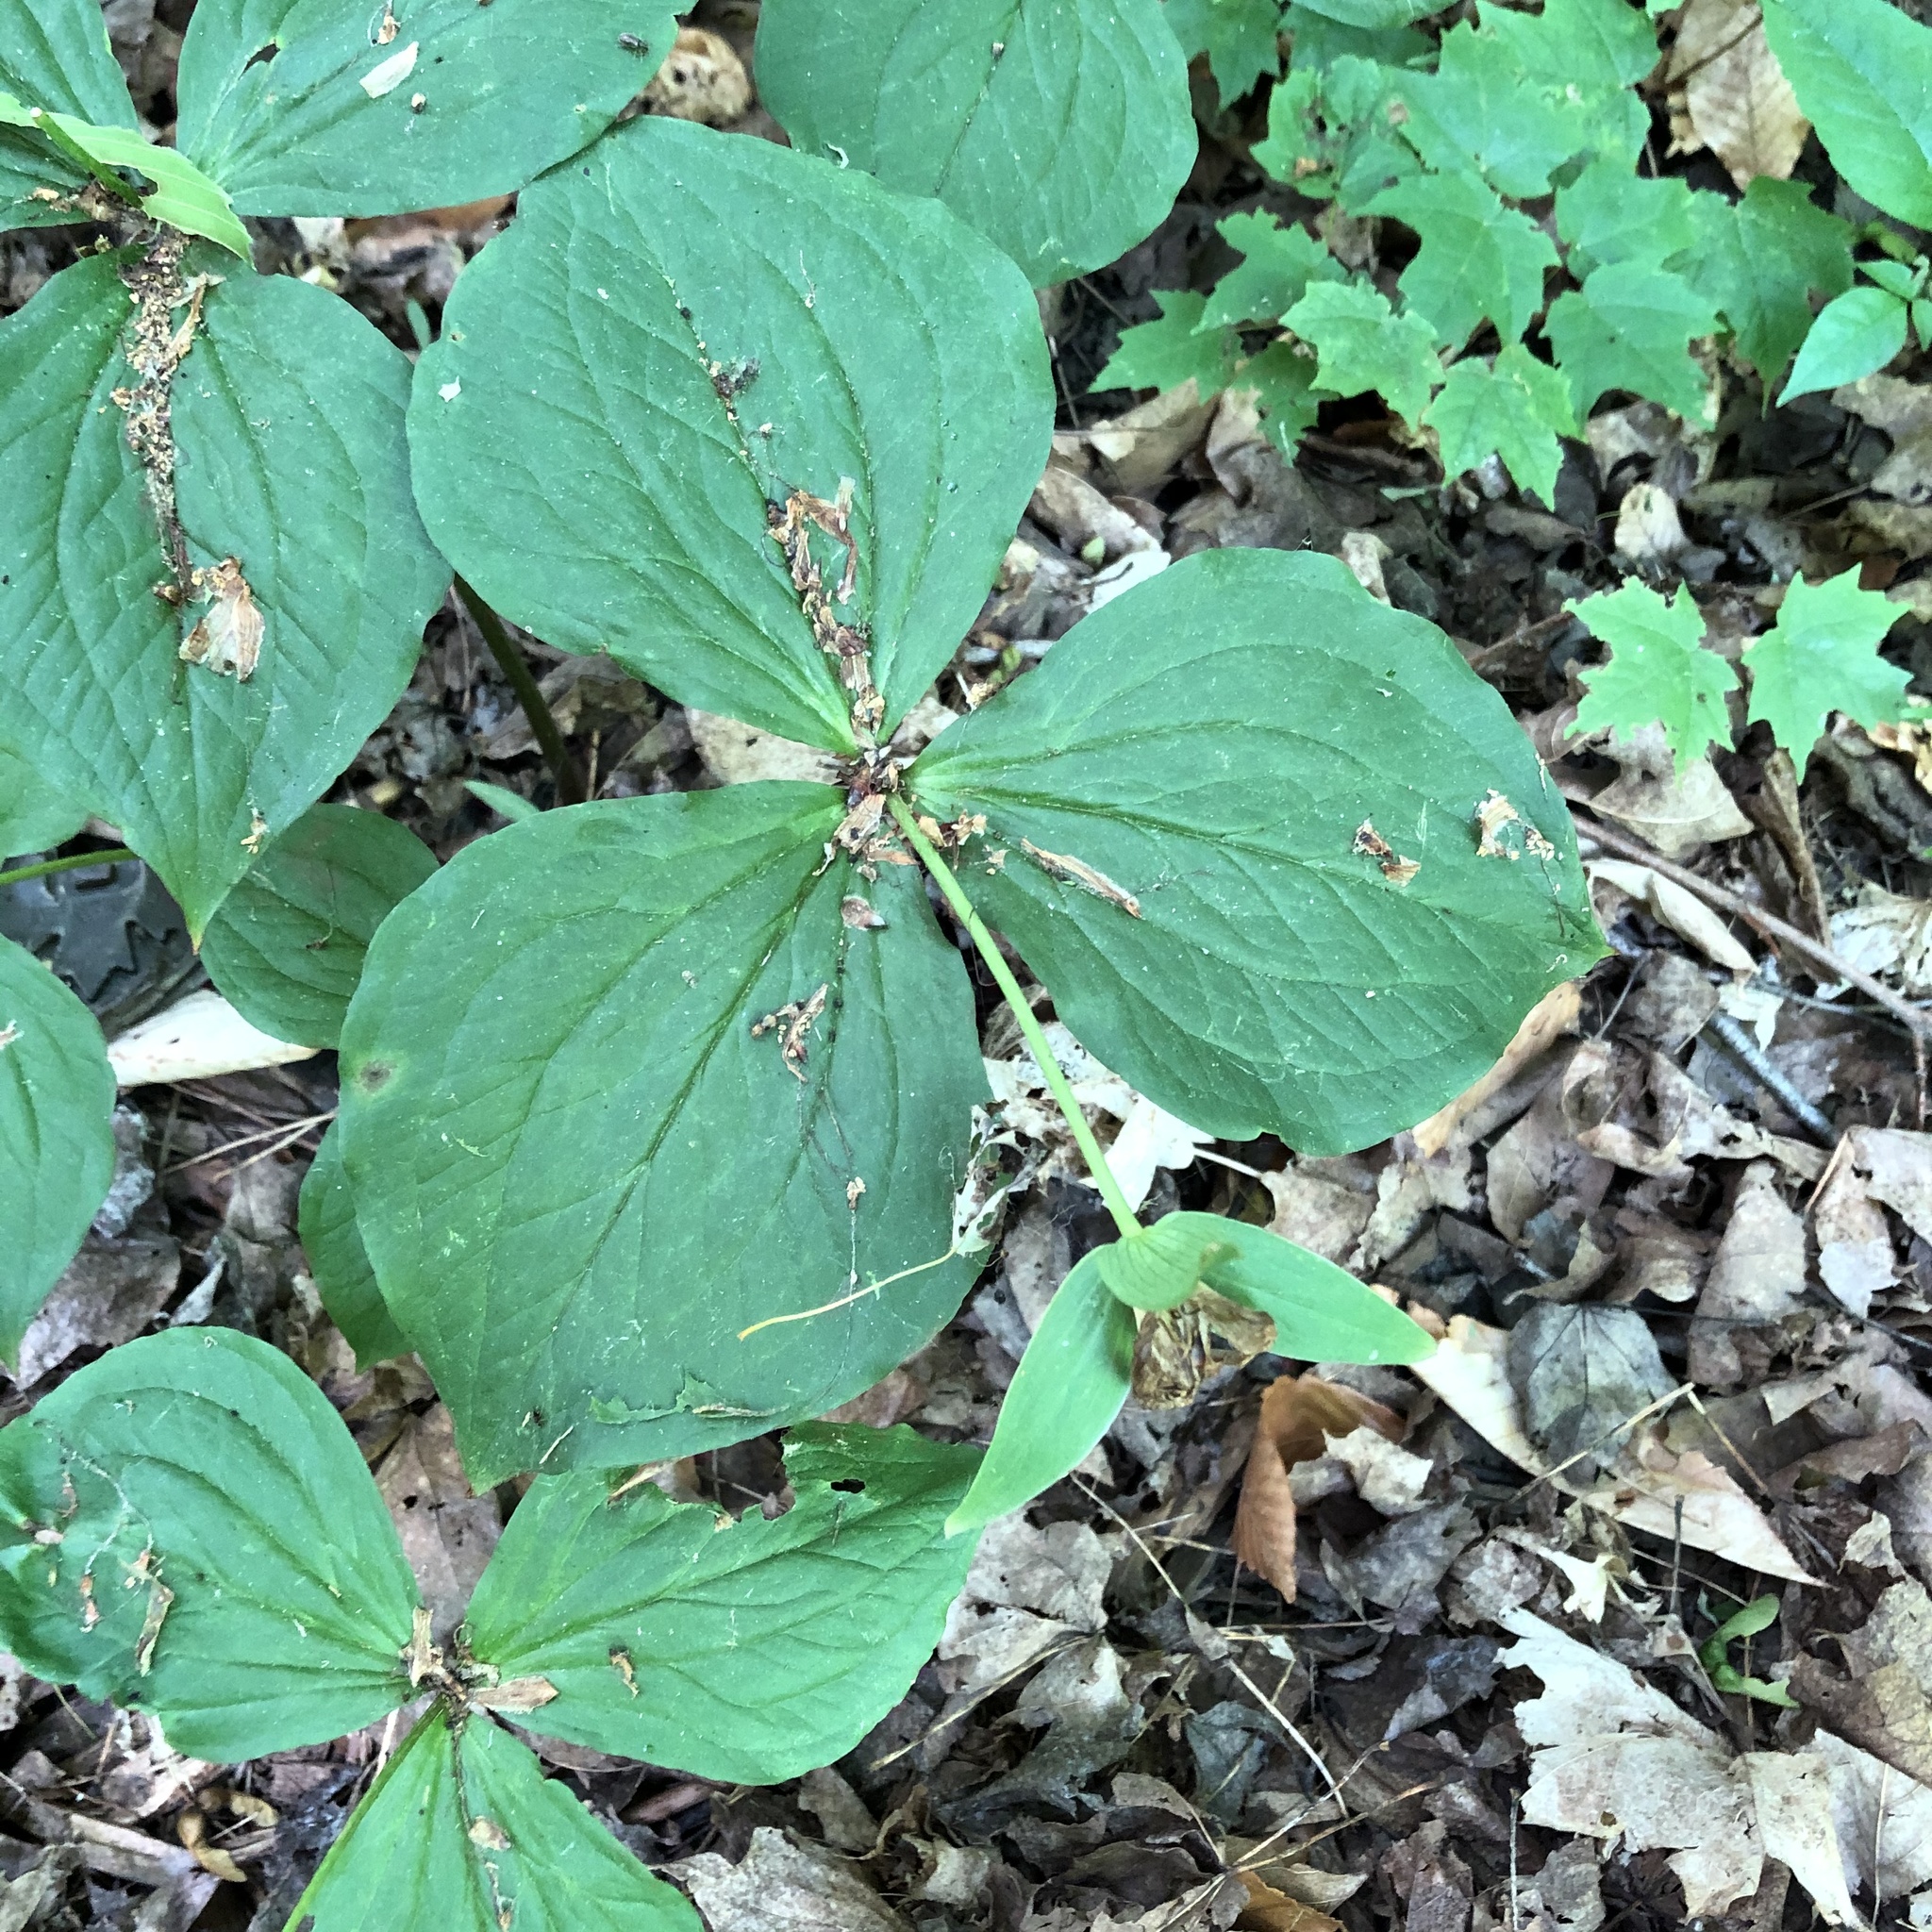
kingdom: Plantae
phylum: Tracheophyta
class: Liliopsida
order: Liliales
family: Melanthiaceae
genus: Trillium
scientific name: Trillium grandiflorum
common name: Great white trillium
